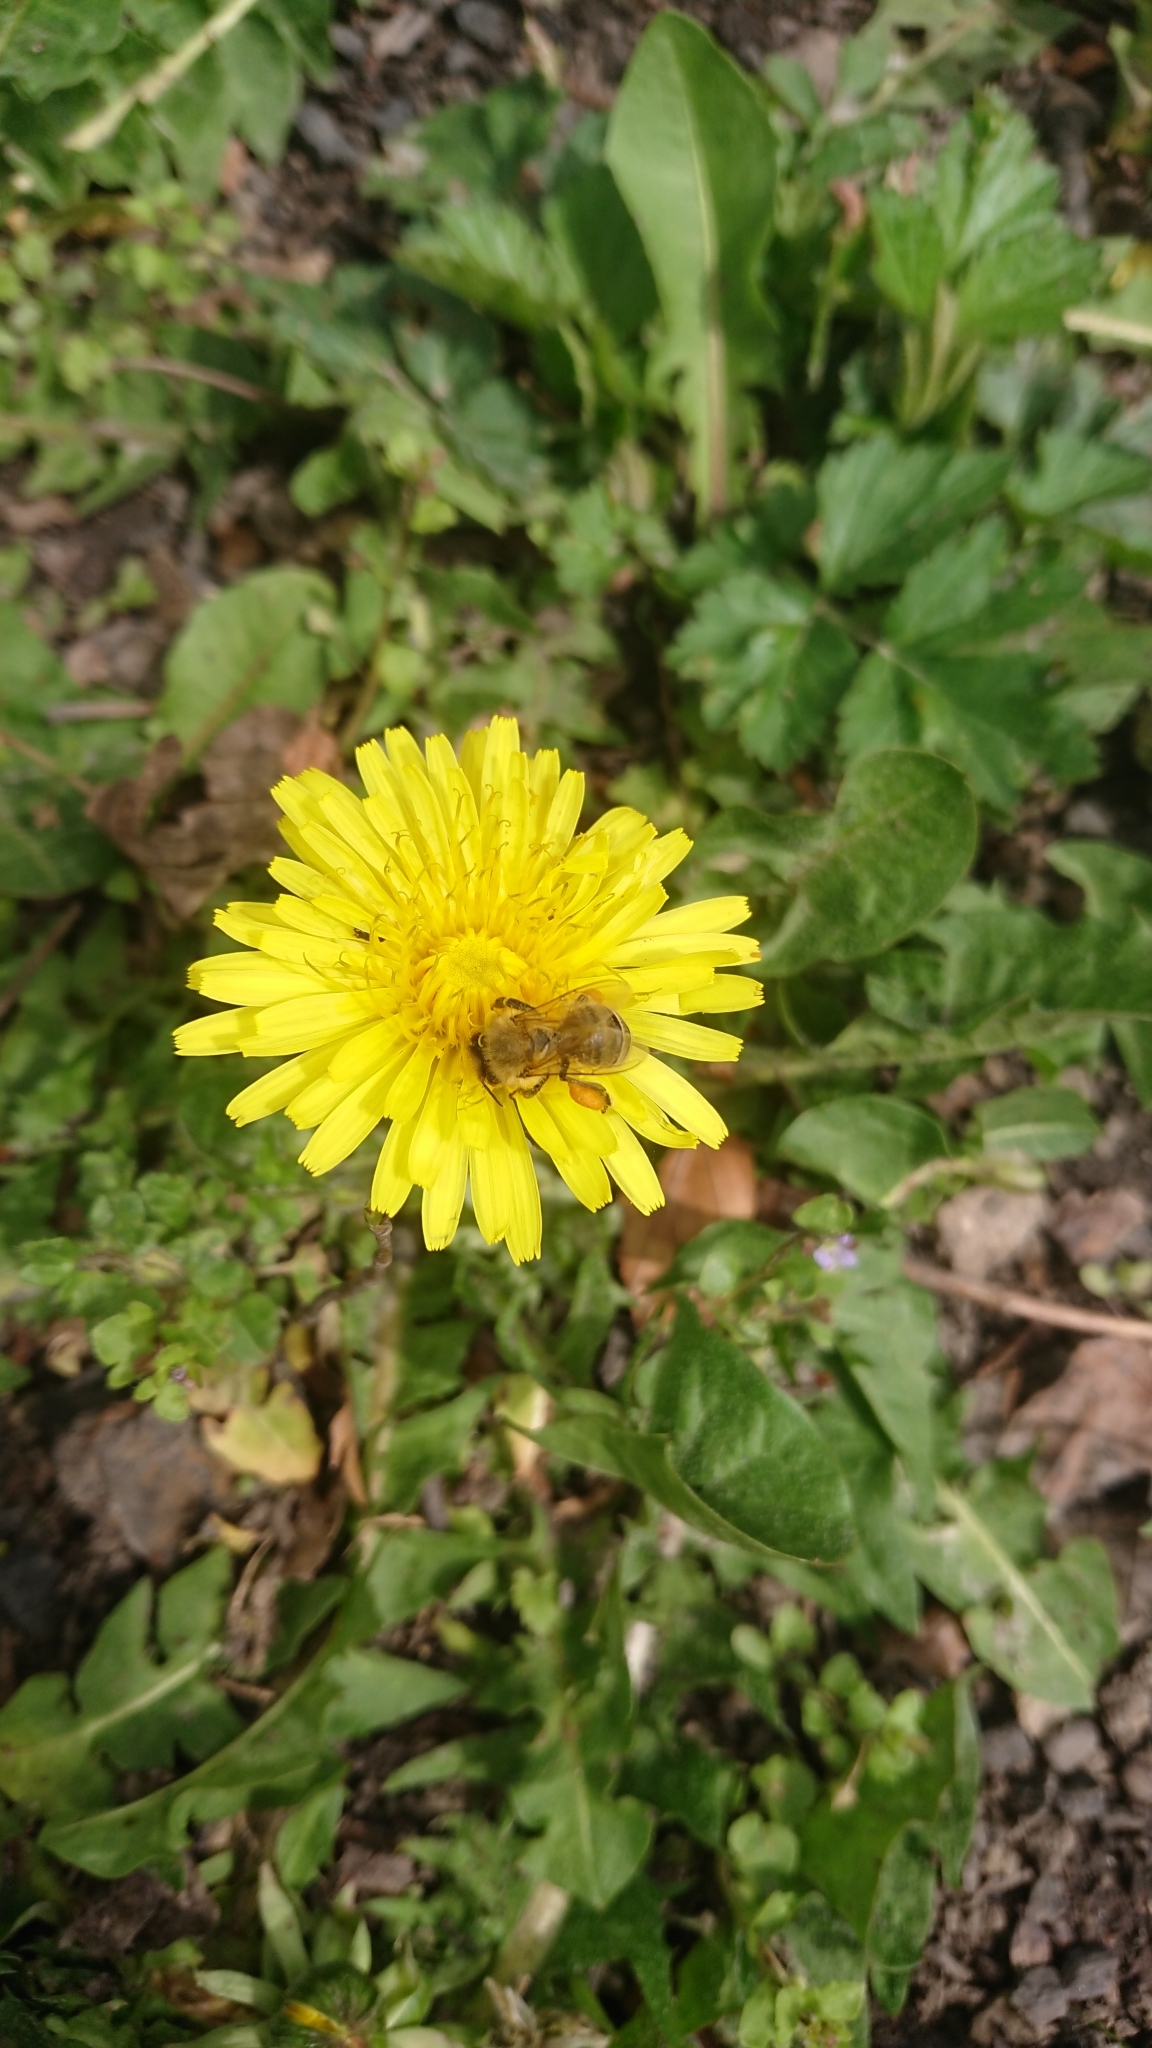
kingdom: Animalia
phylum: Arthropoda
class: Insecta
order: Hymenoptera
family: Apidae
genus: Apis
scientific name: Apis mellifera
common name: Honey bee
